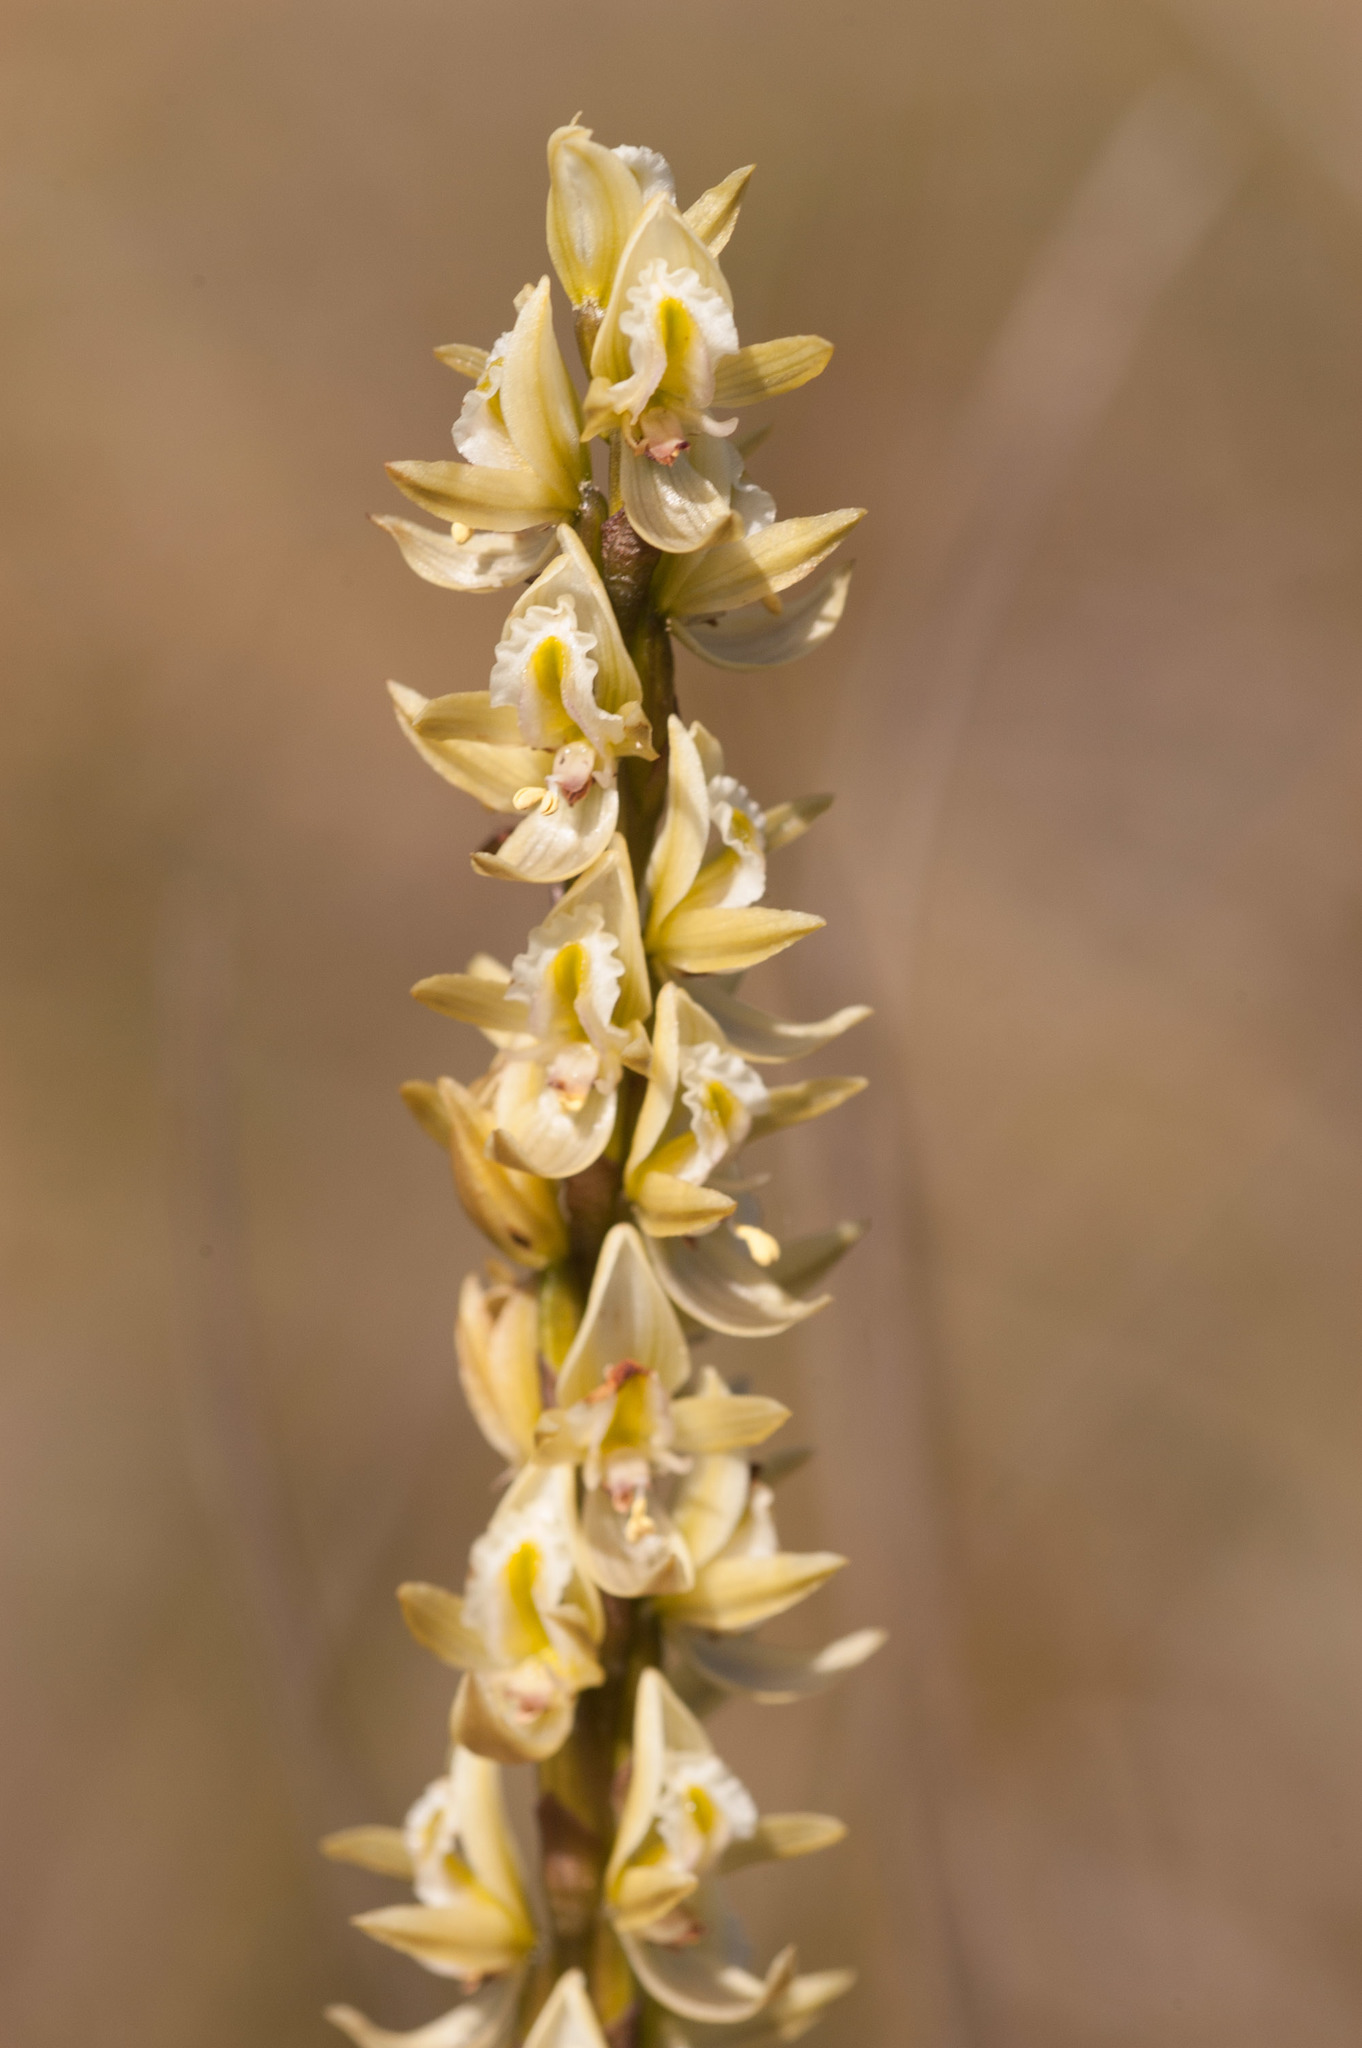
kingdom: Plantae
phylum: Tracheophyta
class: Liliopsida
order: Asparagales
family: Orchidaceae
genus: Prasophyllum
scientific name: Prasophyllum elatum
